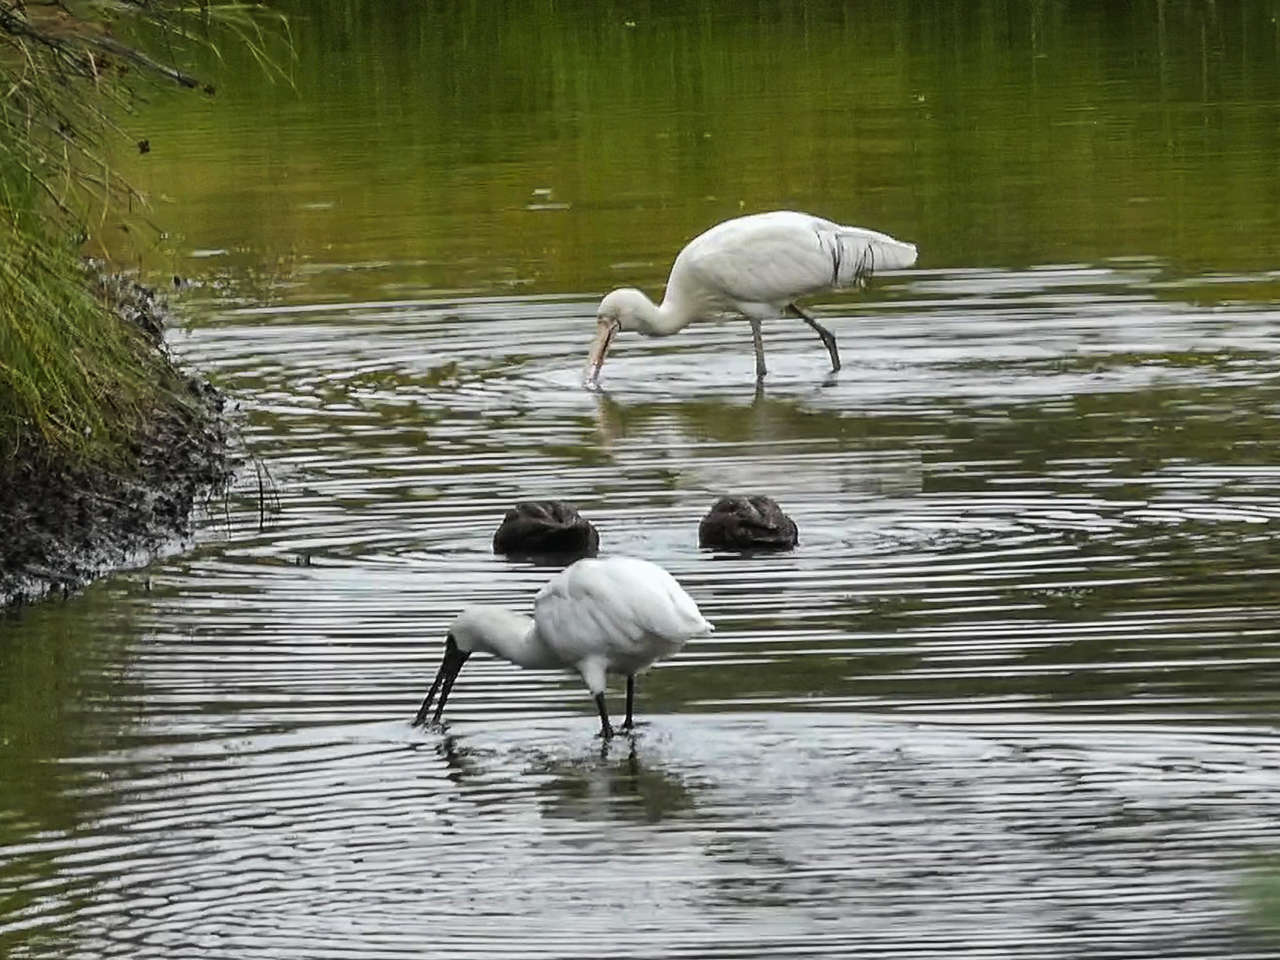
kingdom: Animalia
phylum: Chordata
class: Aves
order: Pelecaniformes
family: Threskiornithidae
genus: Platalea
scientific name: Platalea regia
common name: Royal spoonbill
